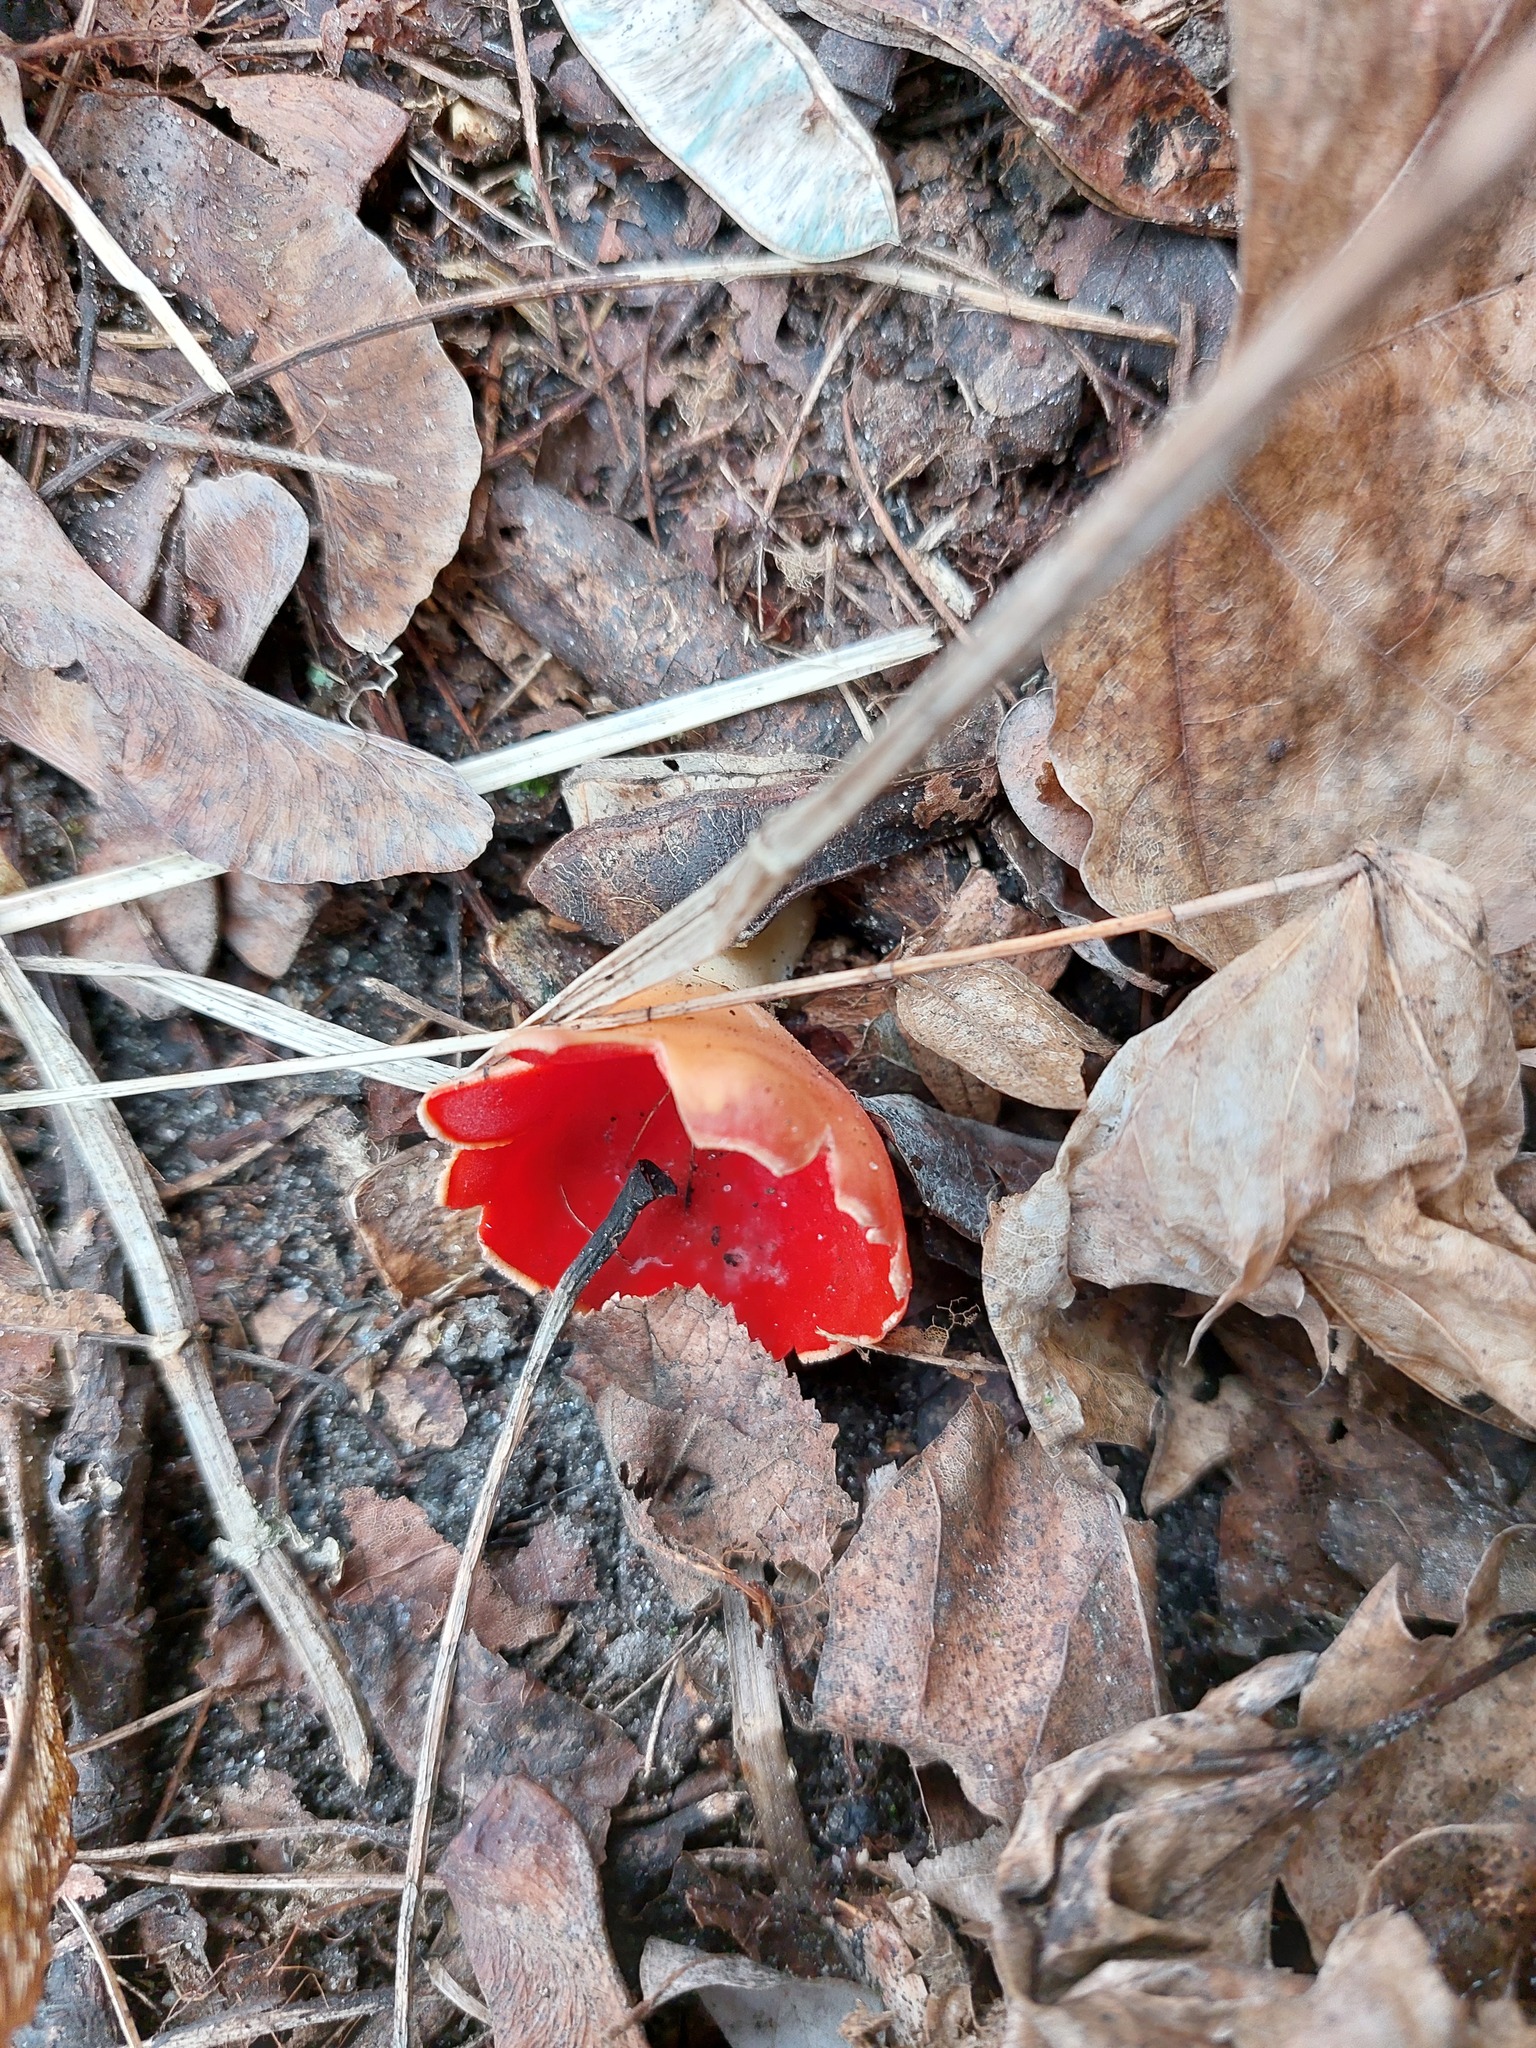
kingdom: Fungi
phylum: Ascomycota
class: Pezizomycetes
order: Pezizales
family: Sarcoscyphaceae
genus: Sarcoscypha
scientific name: Sarcoscypha coccinea
